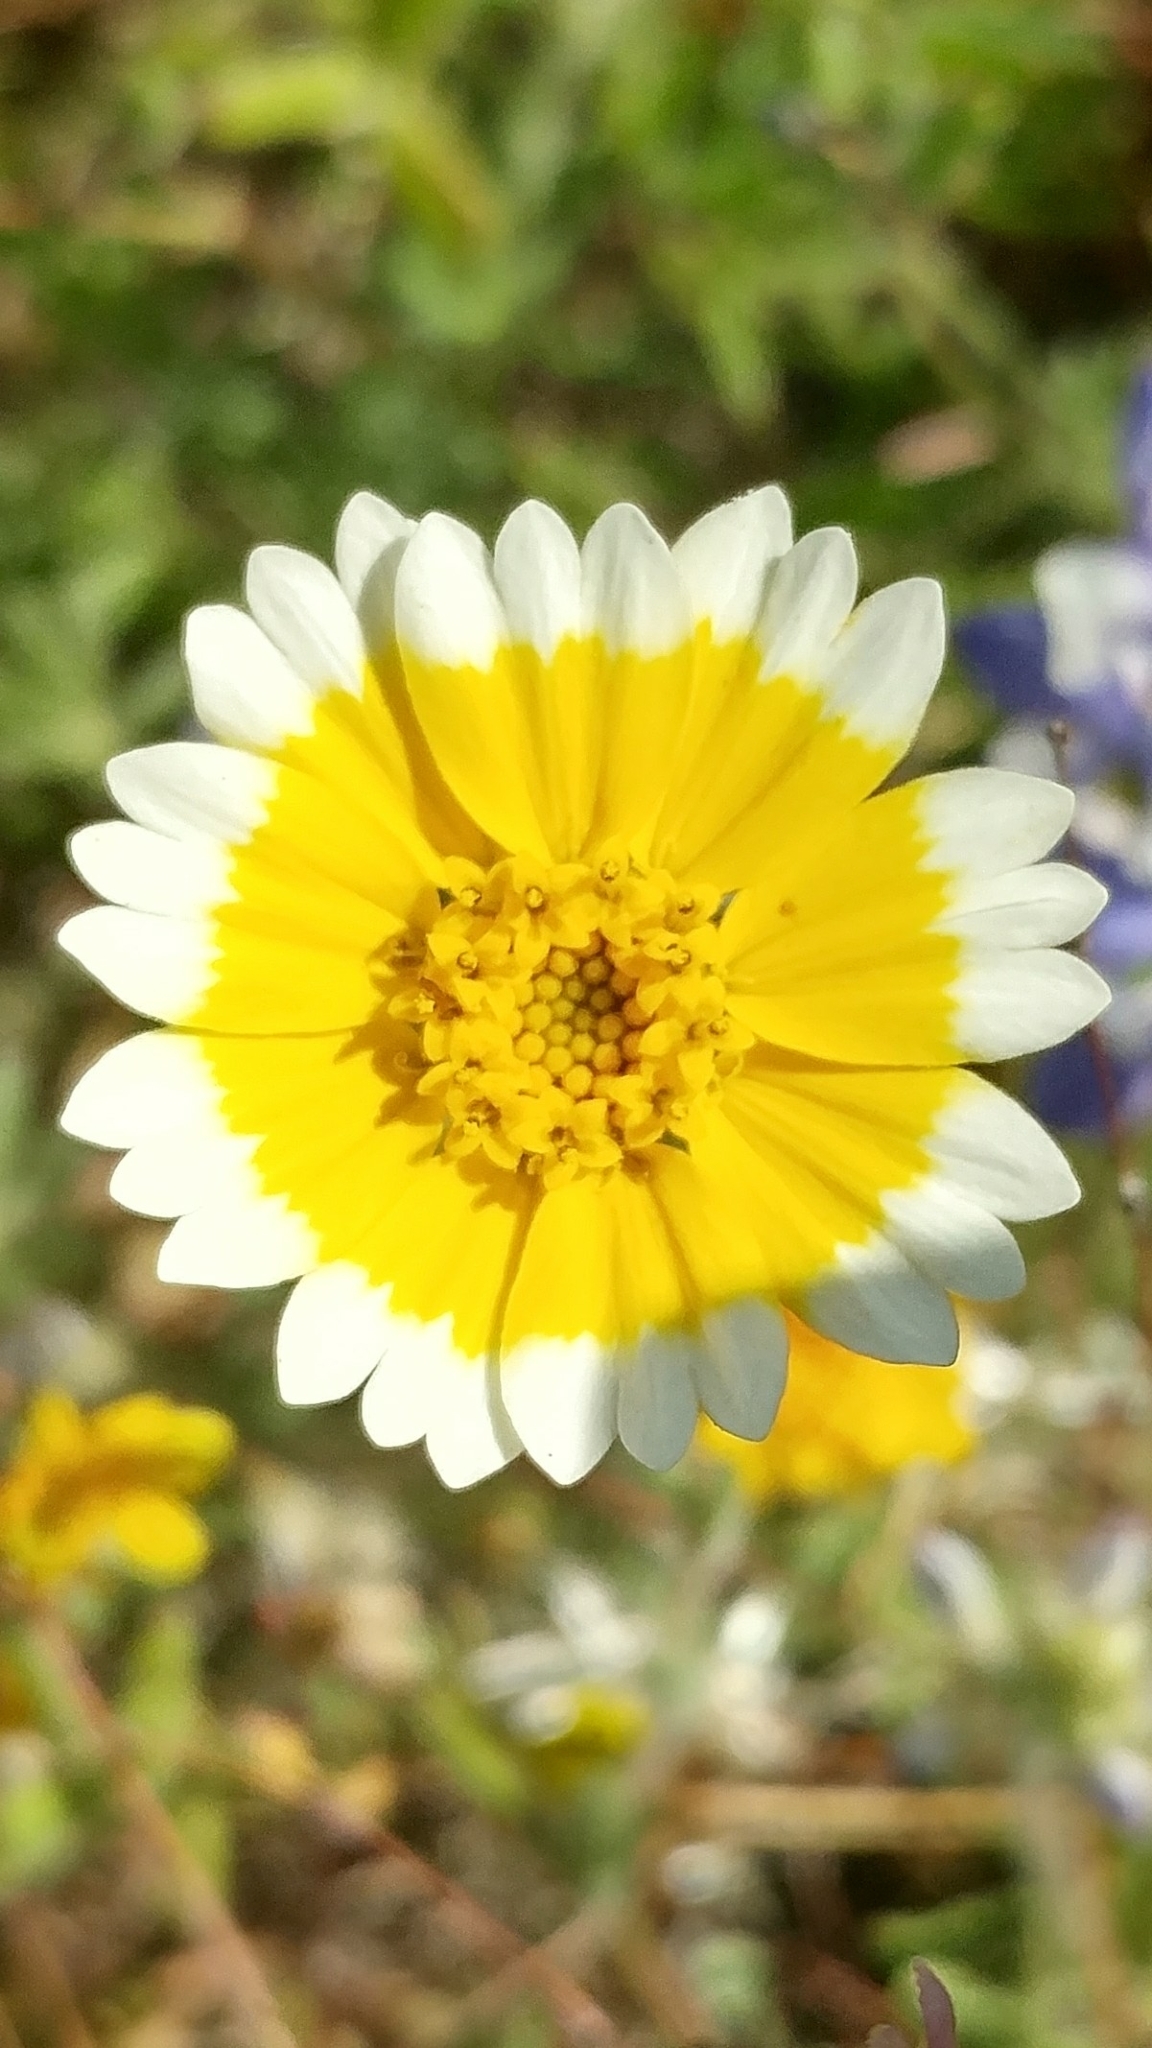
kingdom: Plantae
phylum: Tracheophyta
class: Magnoliopsida
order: Asterales
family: Asteraceae
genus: Layia
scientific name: Layia platyglossa
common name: Tidy-tips
